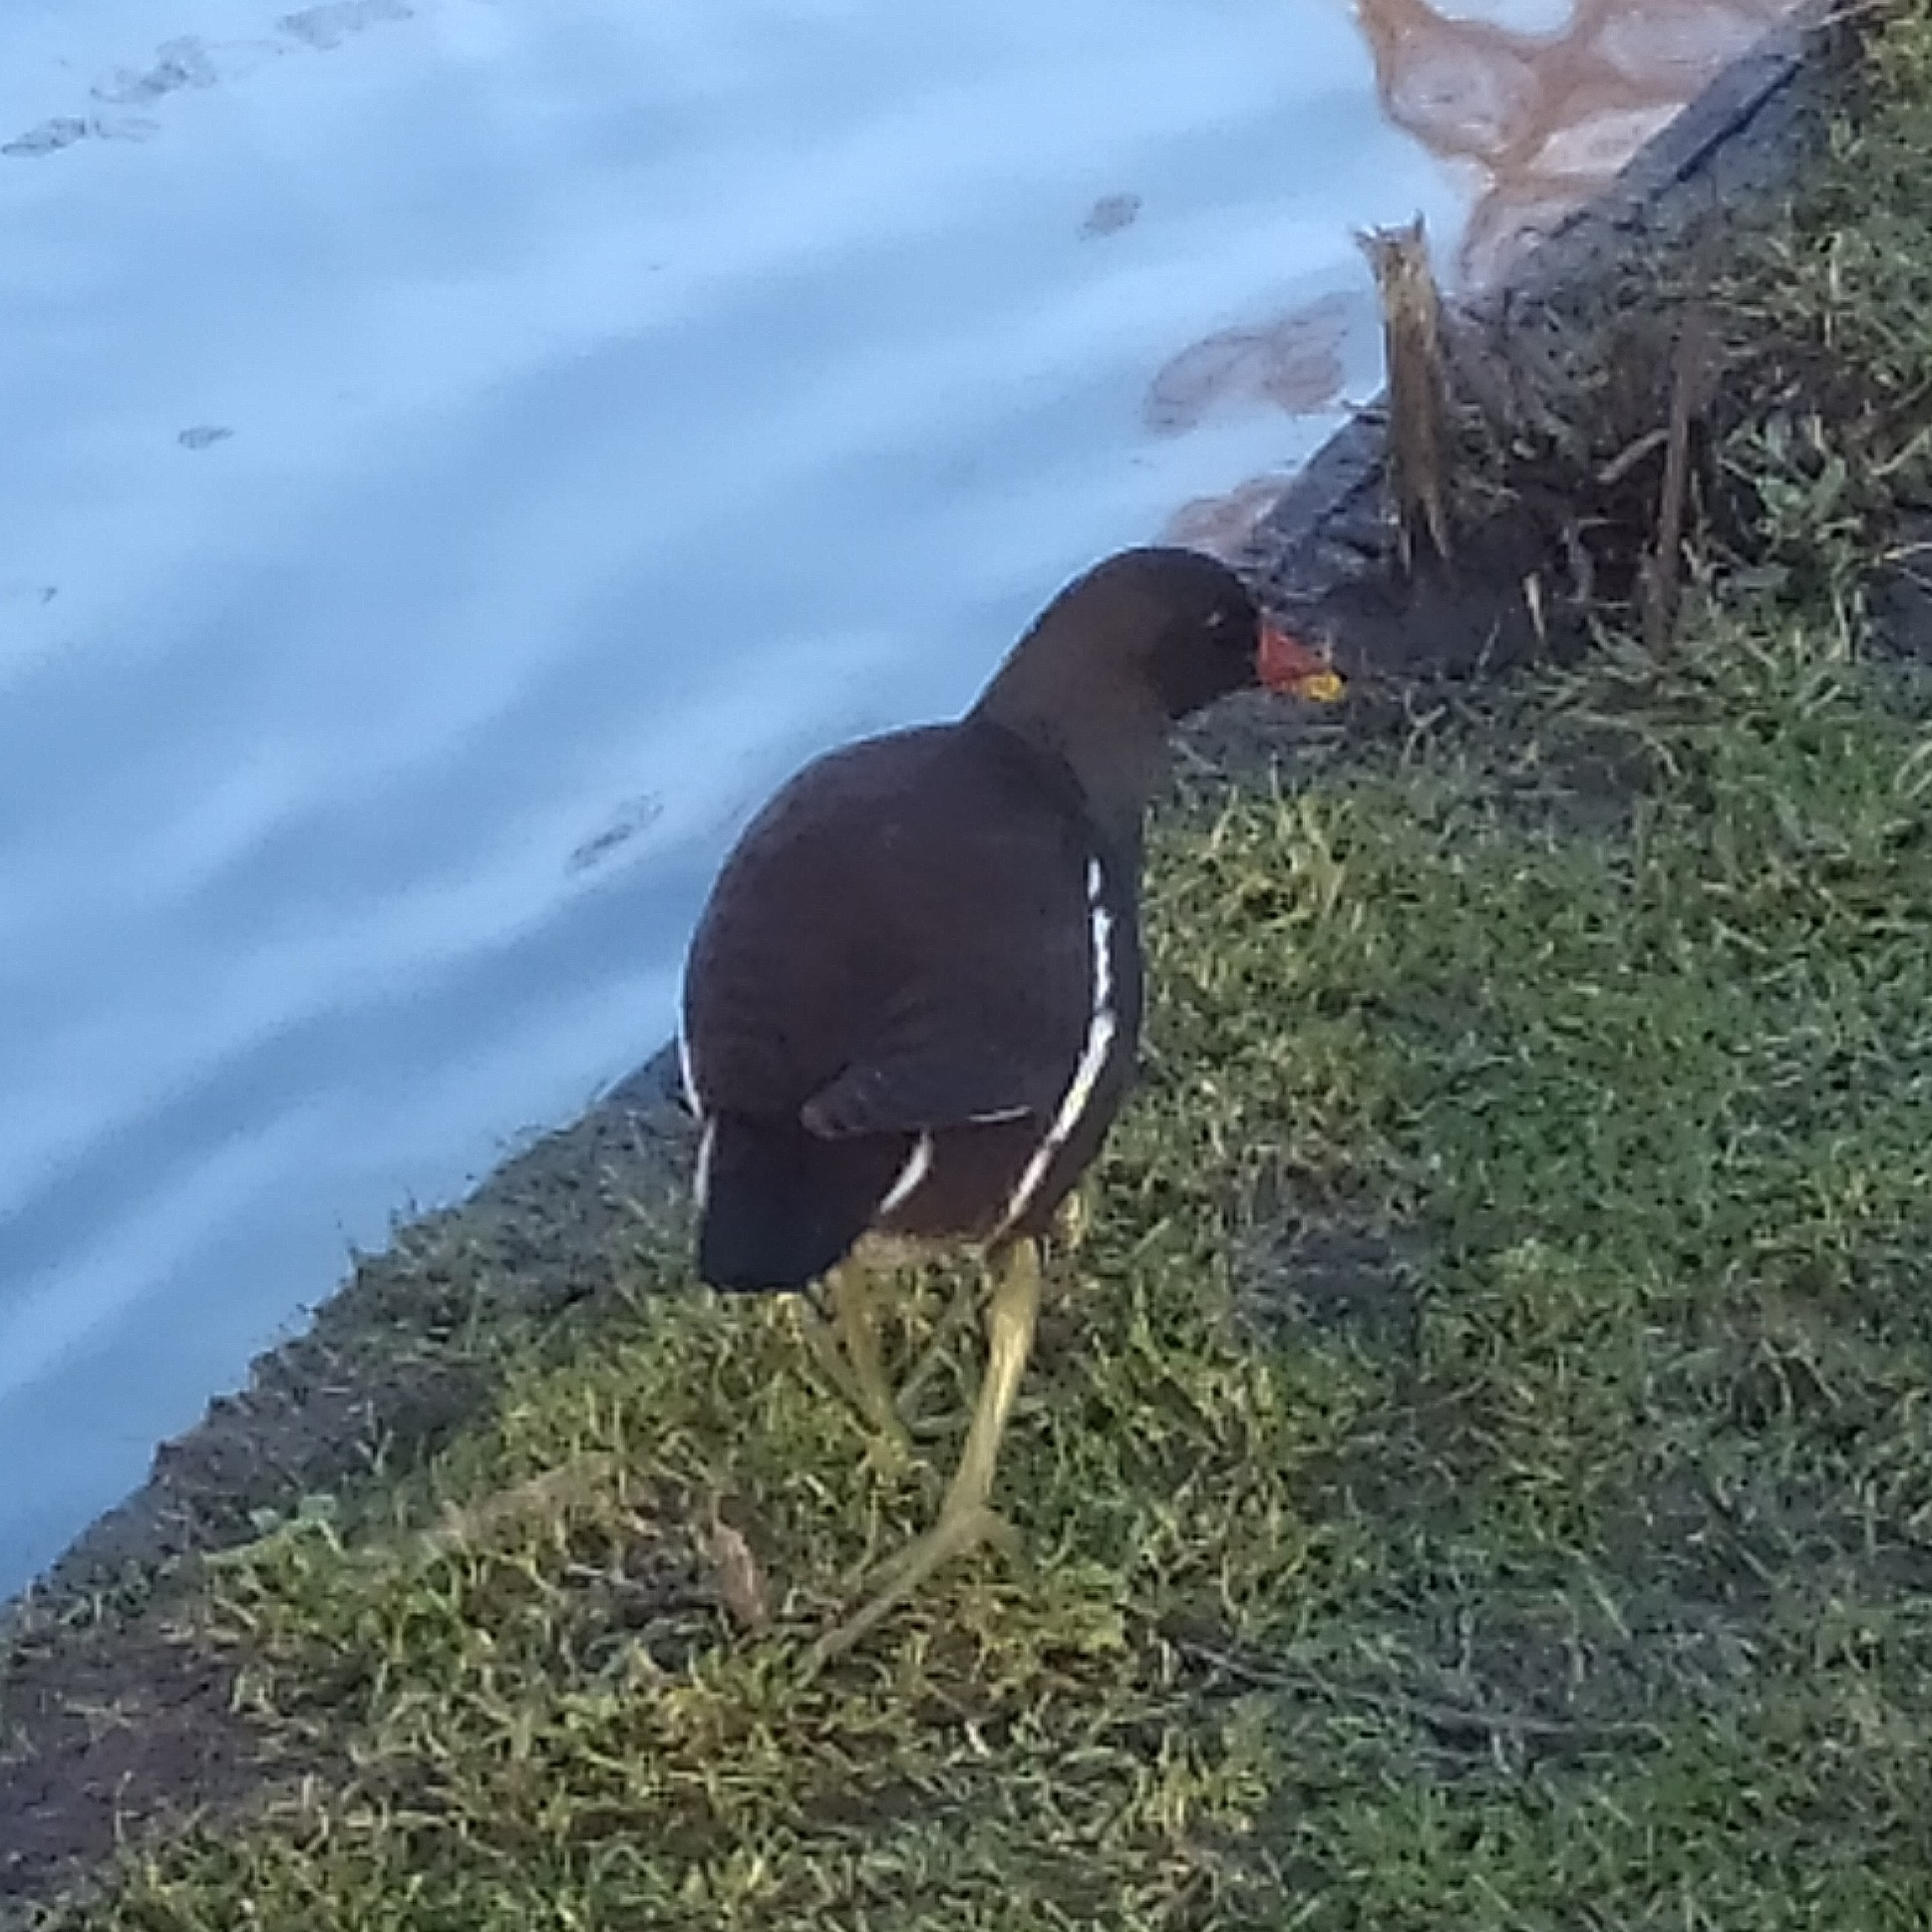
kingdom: Animalia
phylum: Chordata
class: Aves
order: Gruiformes
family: Rallidae
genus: Gallinula
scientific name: Gallinula chloropus
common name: Common moorhen
